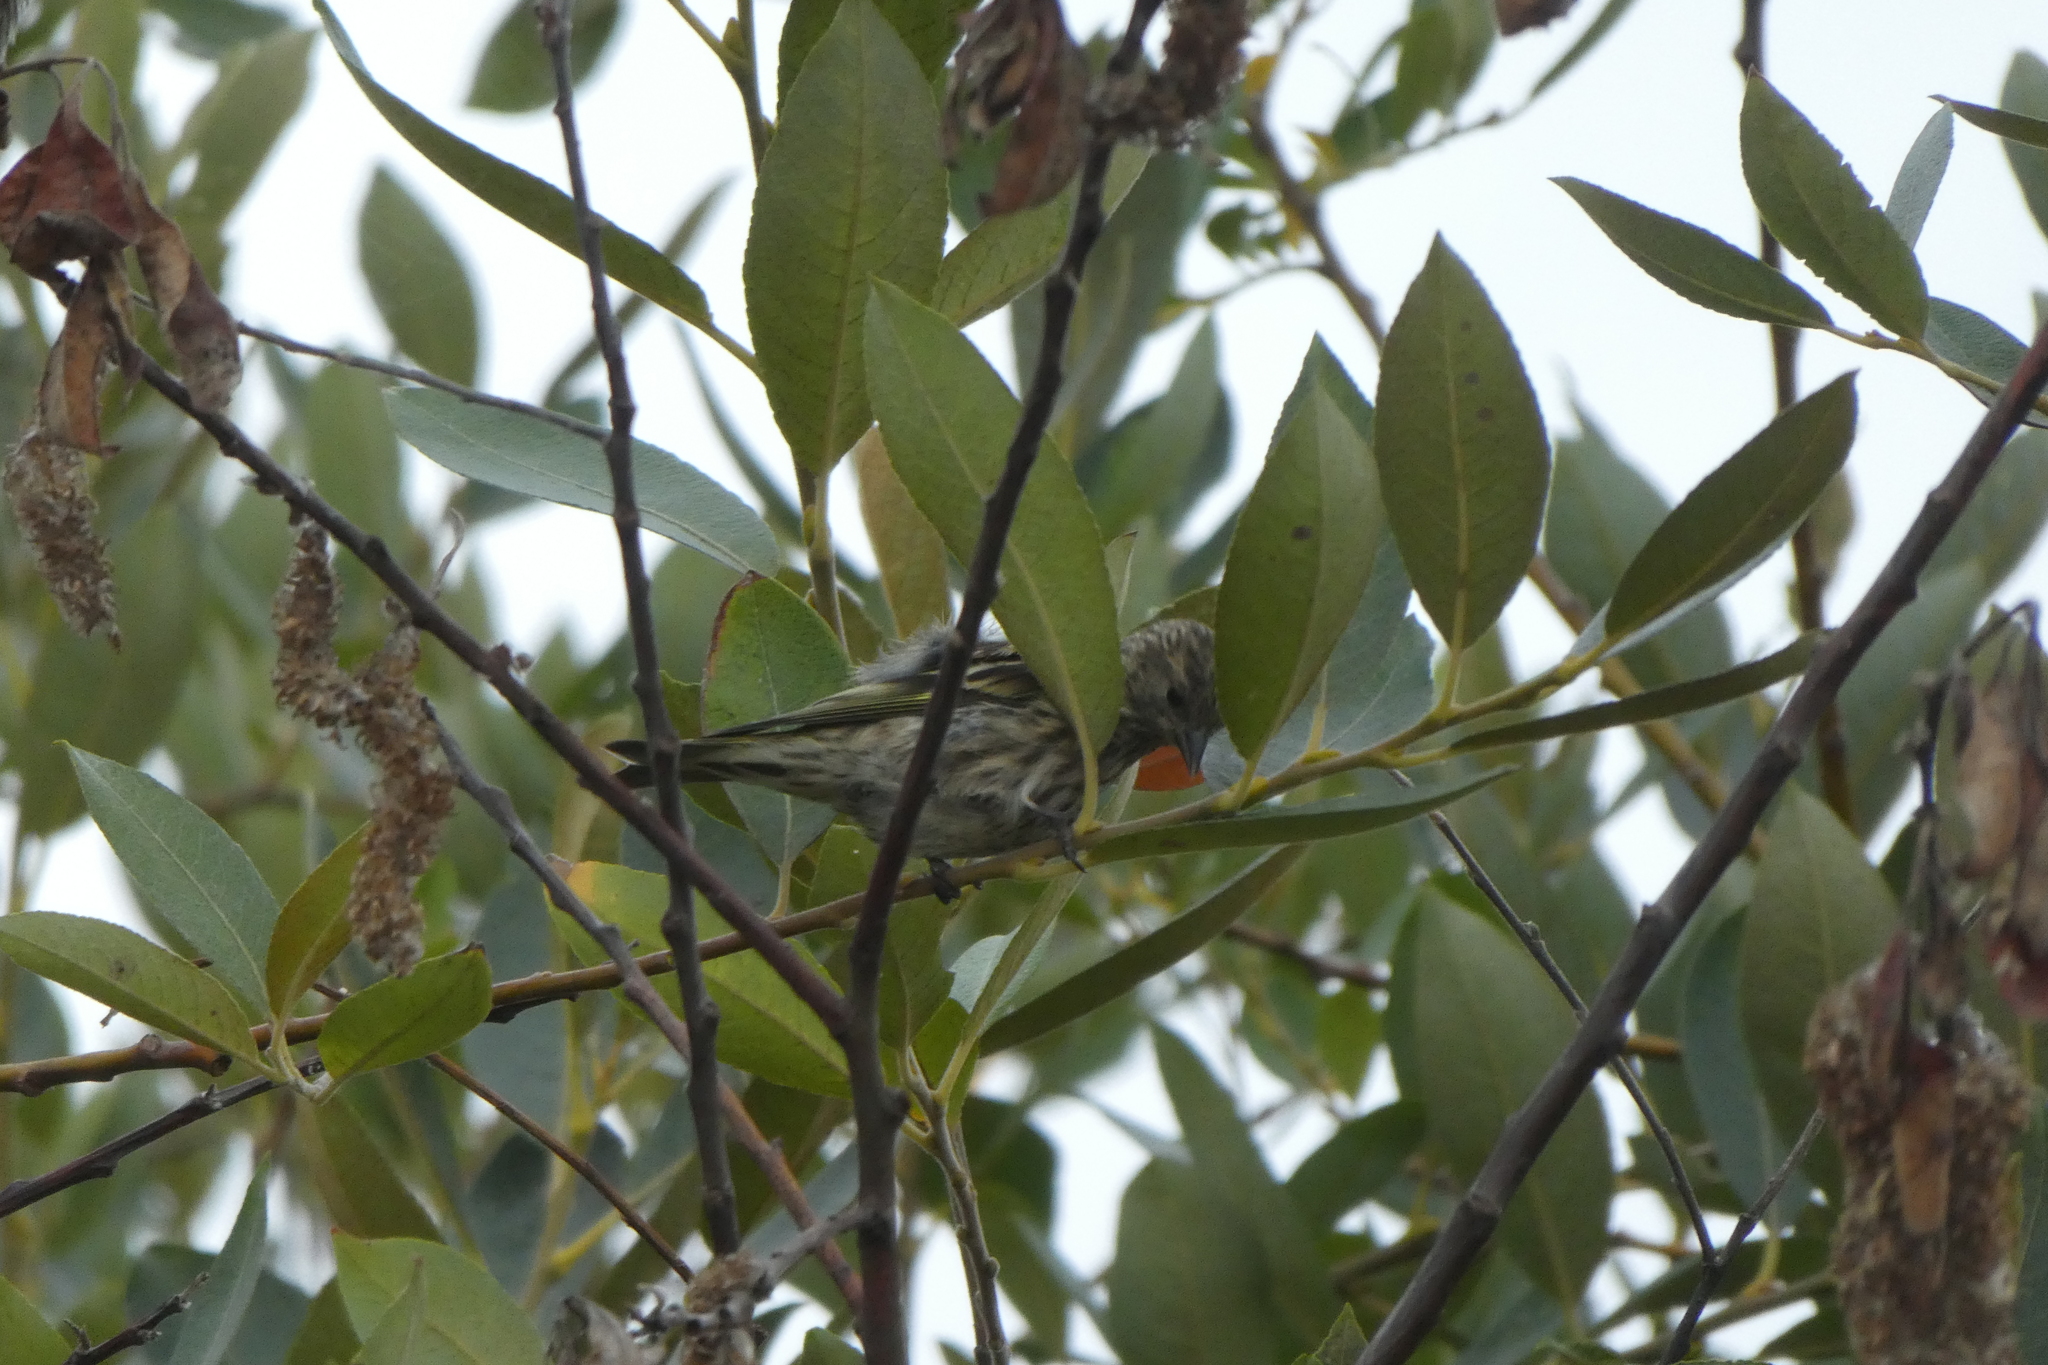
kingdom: Animalia
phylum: Chordata
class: Aves
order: Passeriformes
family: Fringillidae
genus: Spinus
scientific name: Spinus pinus
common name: Pine siskin
